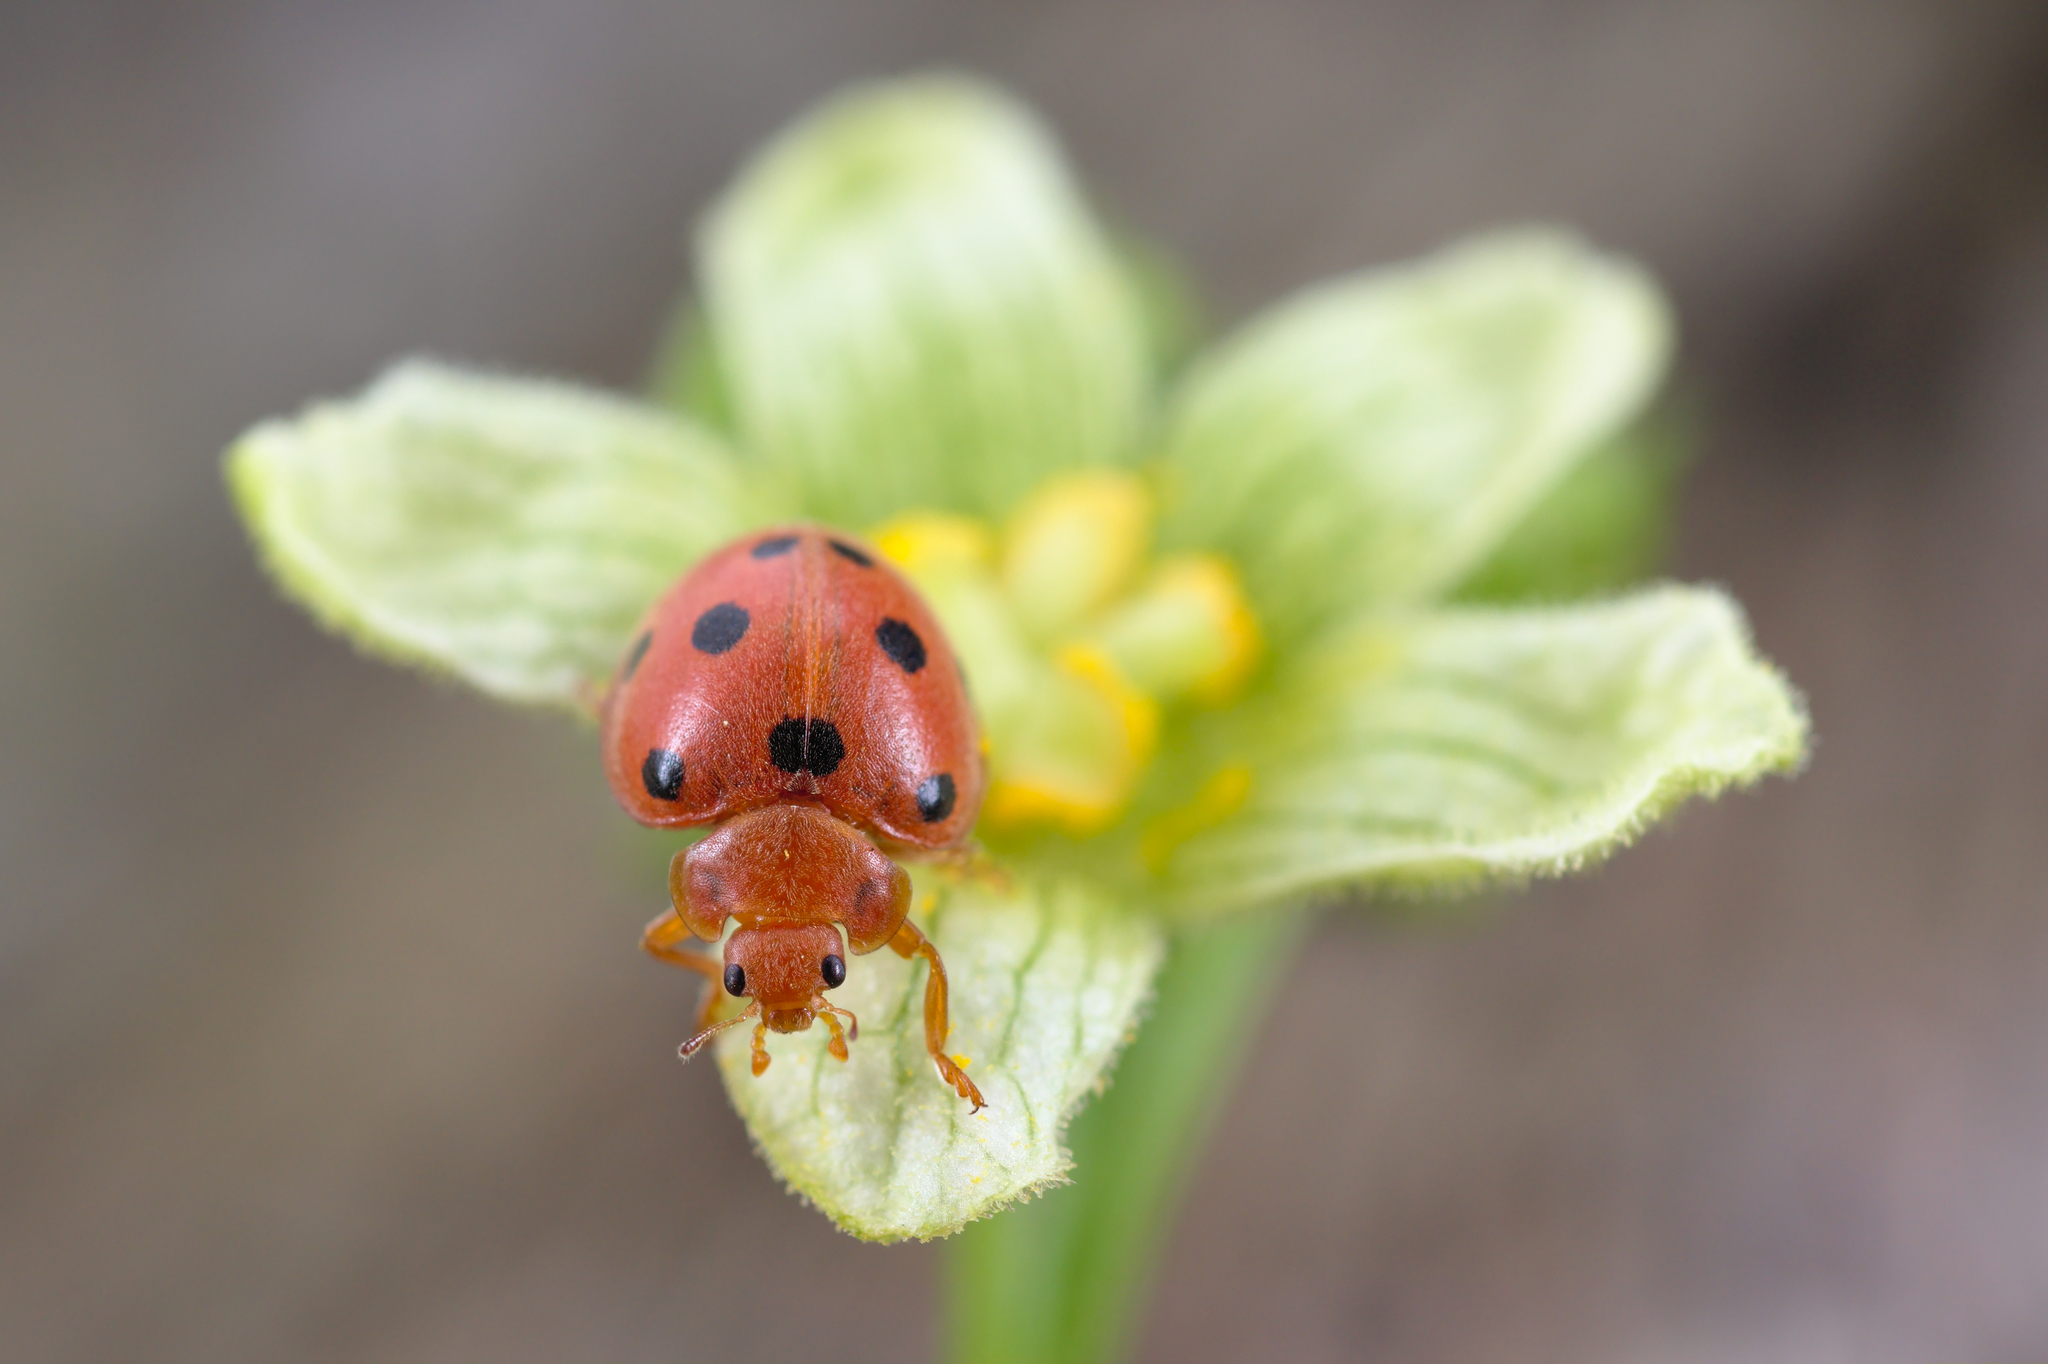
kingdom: Animalia
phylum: Arthropoda
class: Insecta
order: Coleoptera
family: Coccinellidae
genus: Henosepilachna
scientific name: Henosepilachna argus
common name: Bryony ladybird
